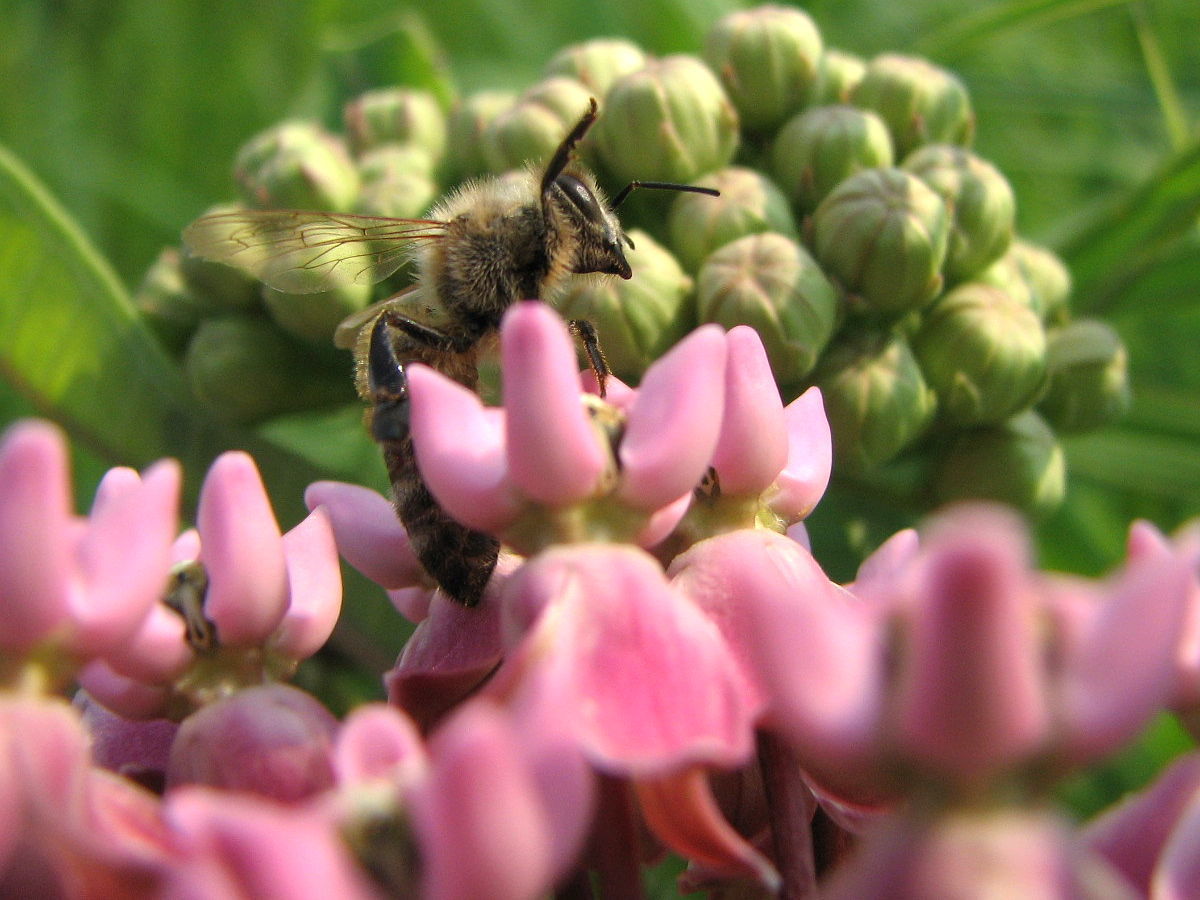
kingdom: Plantae
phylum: Tracheophyta
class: Magnoliopsida
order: Gentianales
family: Apocynaceae
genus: Asclepias
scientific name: Asclepias sullivantii
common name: Prairie milkweed
